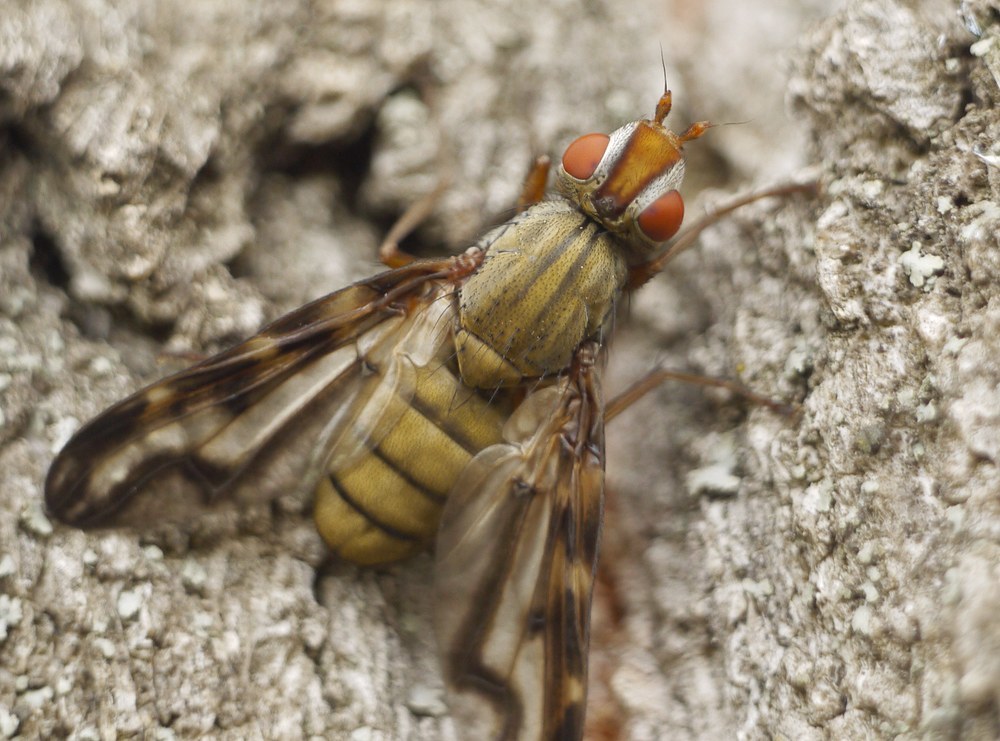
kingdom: Animalia
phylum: Arthropoda
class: Insecta
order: Diptera
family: Ulidiidae
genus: Otites
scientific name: Otites lamed
